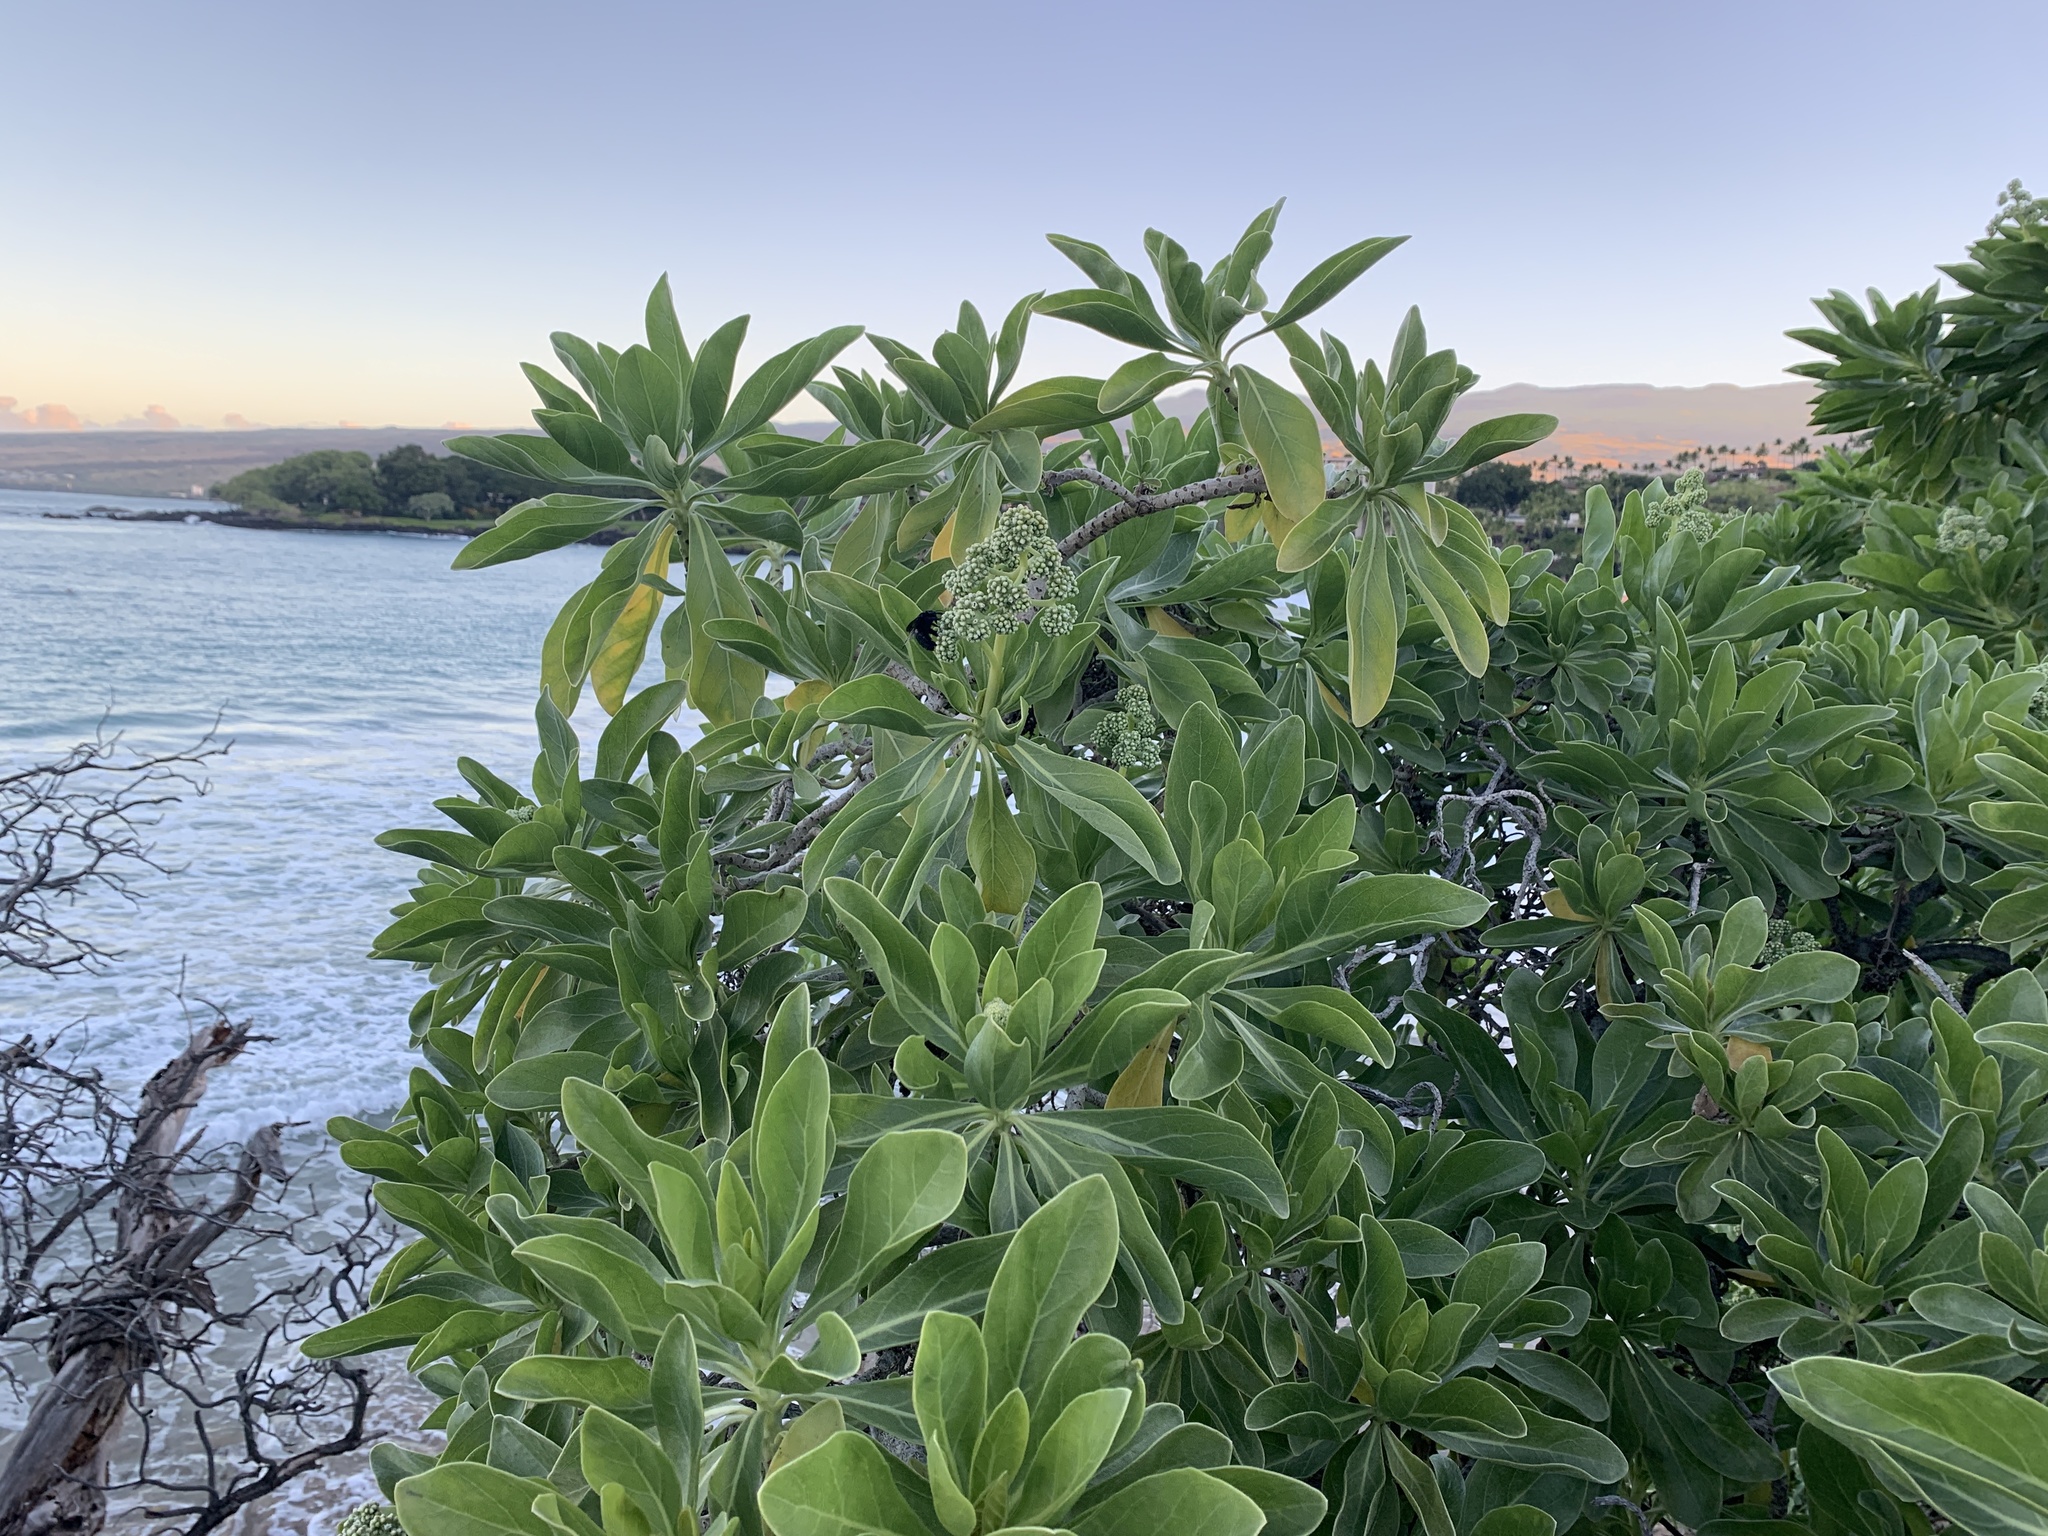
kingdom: Animalia
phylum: Arthropoda
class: Insecta
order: Hymenoptera
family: Apidae
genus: Xylocopa
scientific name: Xylocopa sonorina
